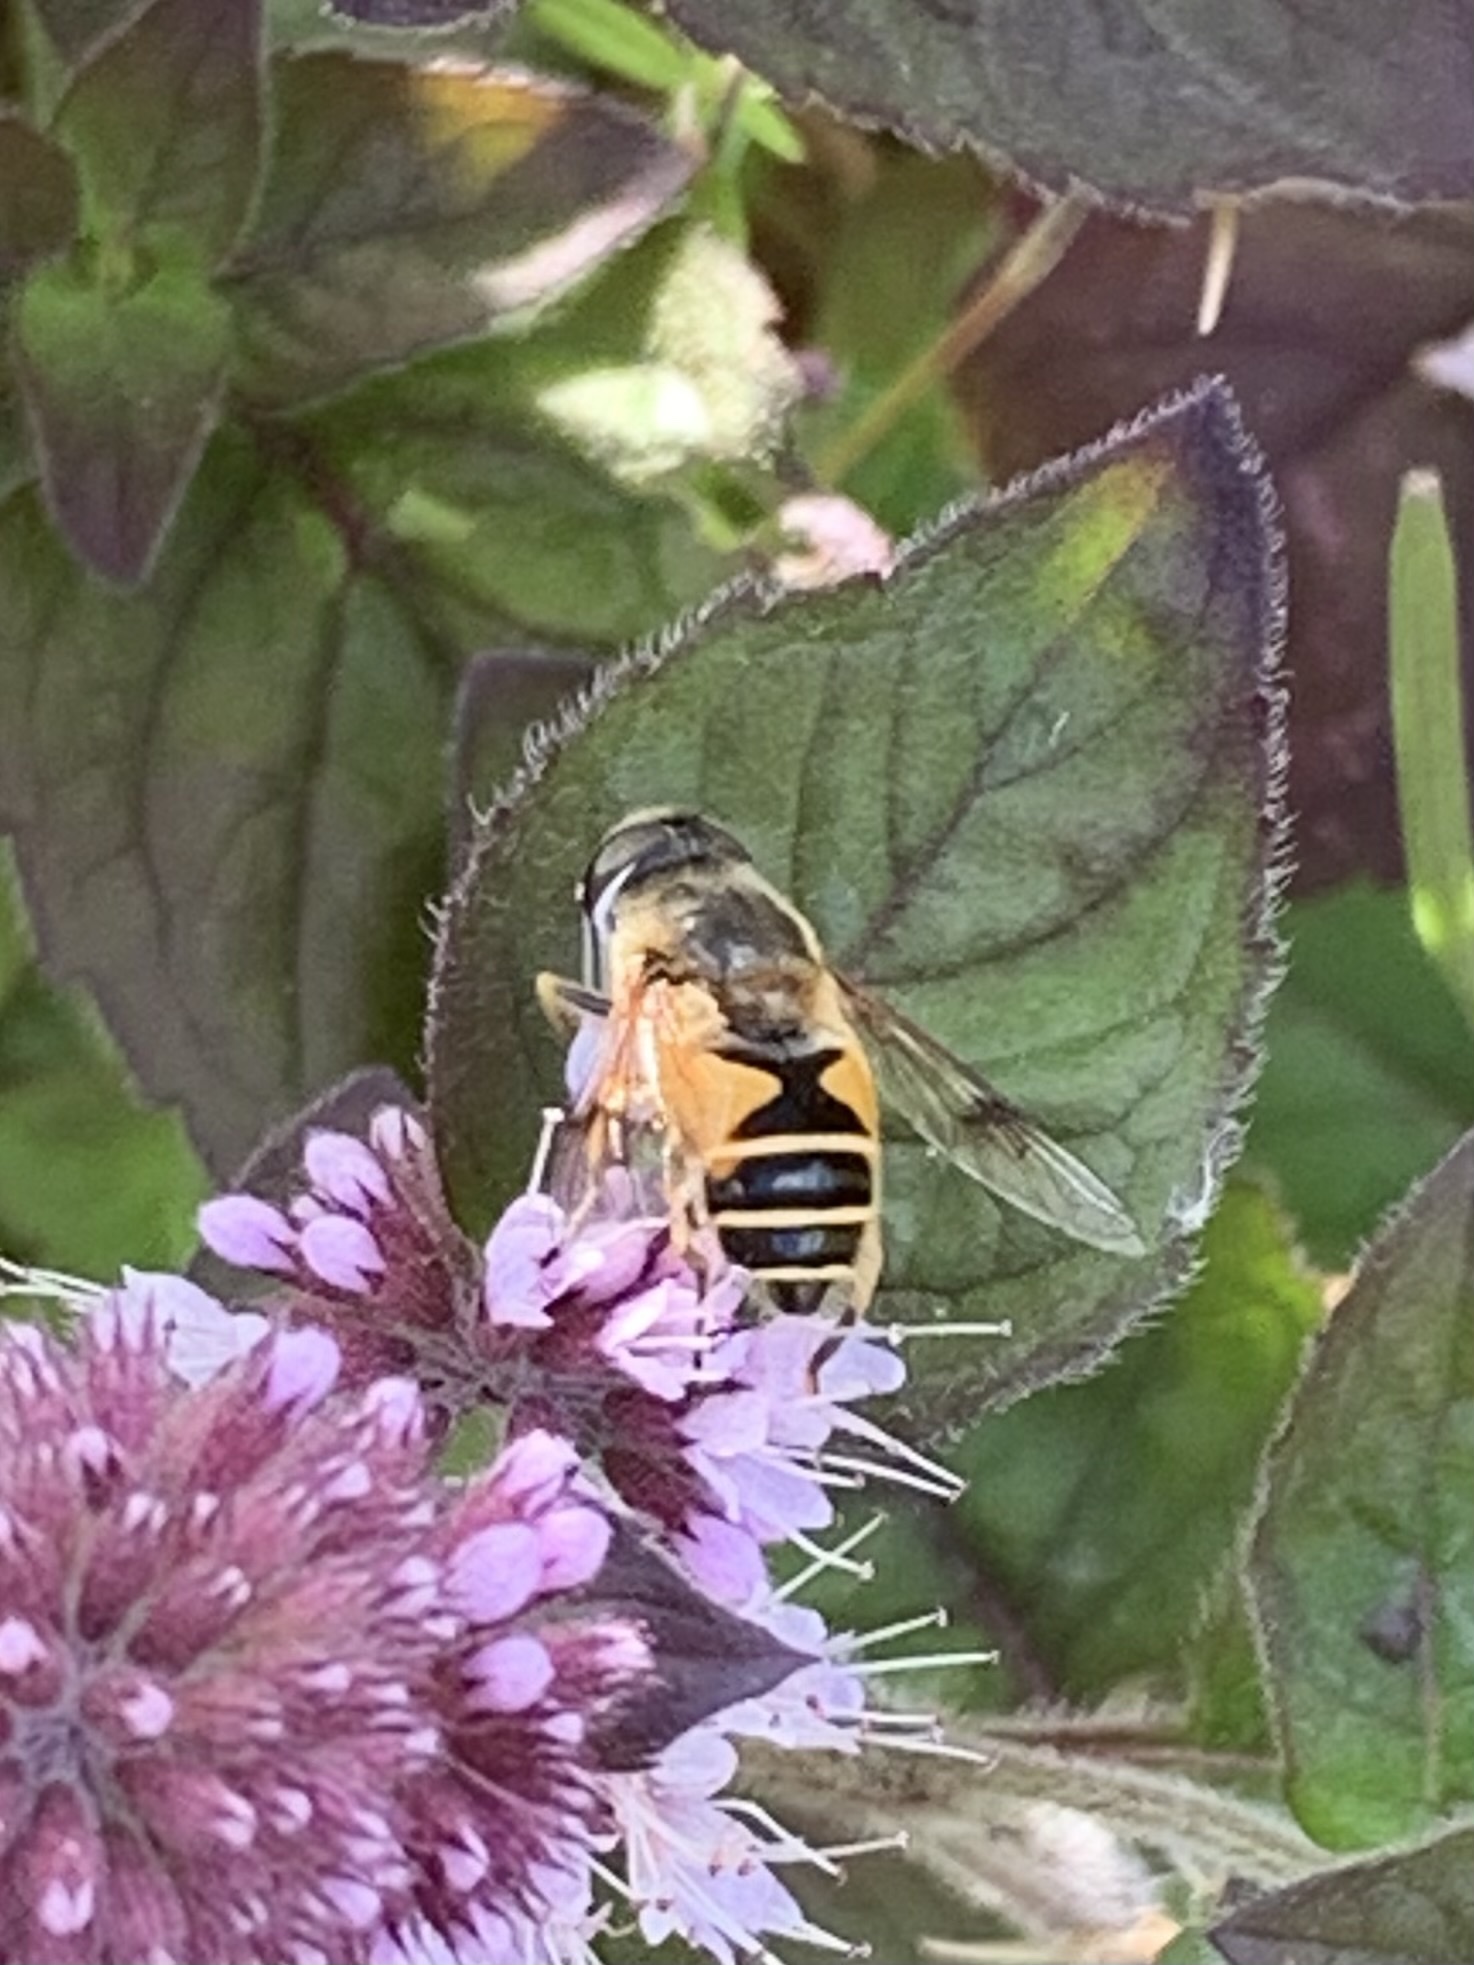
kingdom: Animalia
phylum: Arthropoda
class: Insecta
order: Diptera
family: Syrphidae
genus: Cheilosia
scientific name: Cheilosia morio
